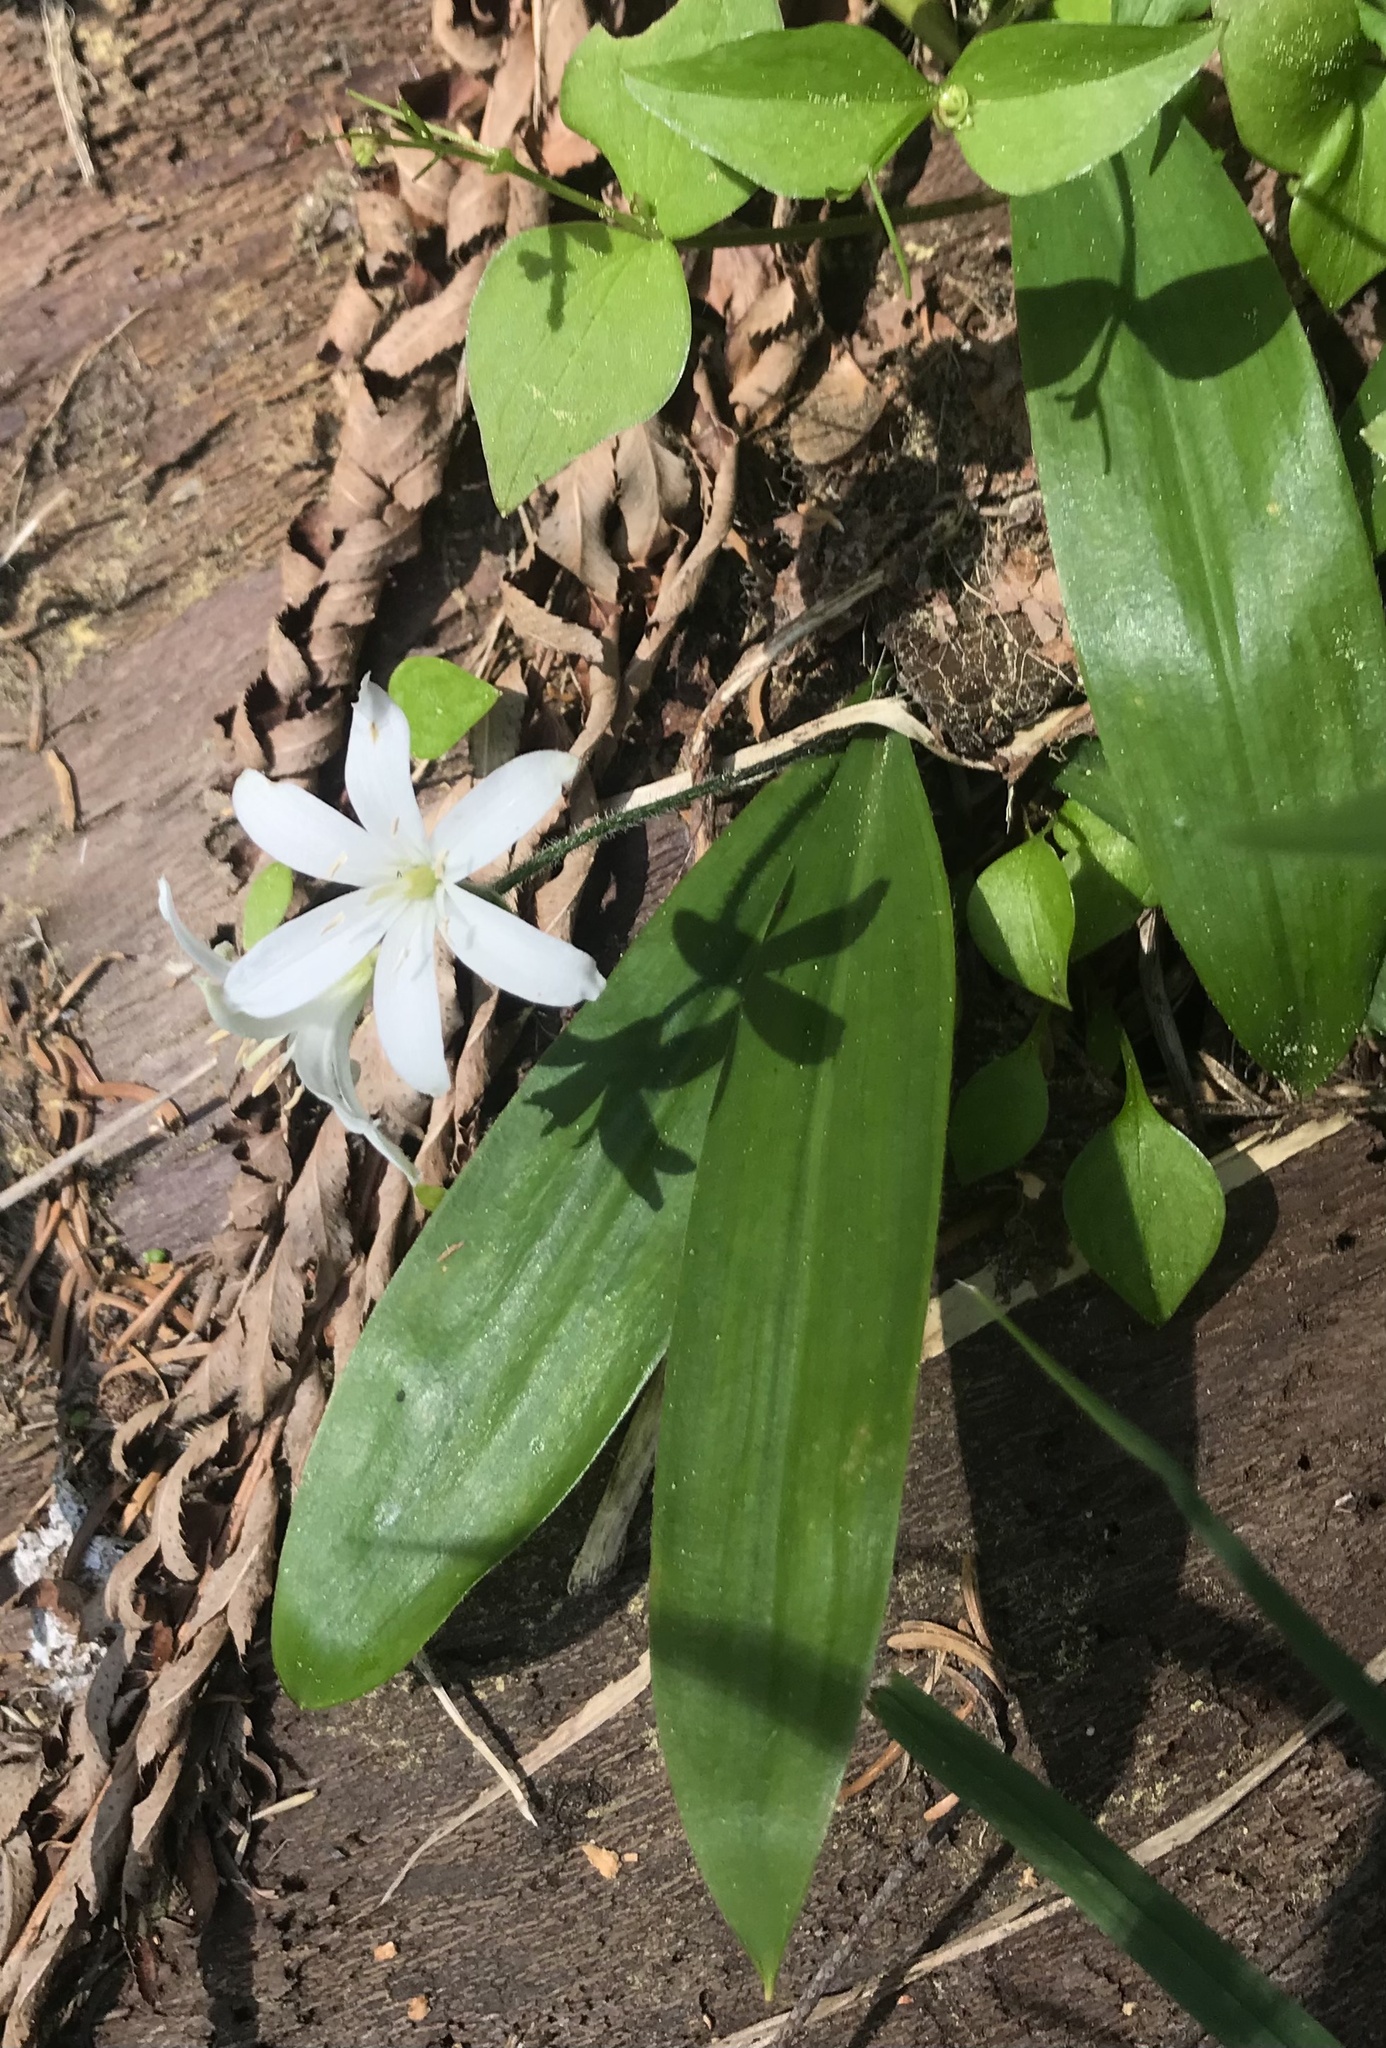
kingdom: Plantae
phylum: Tracheophyta
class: Liliopsida
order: Liliales
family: Liliaceae
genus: Clintonia
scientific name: Clintonia uniflora
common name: Queen's cup
